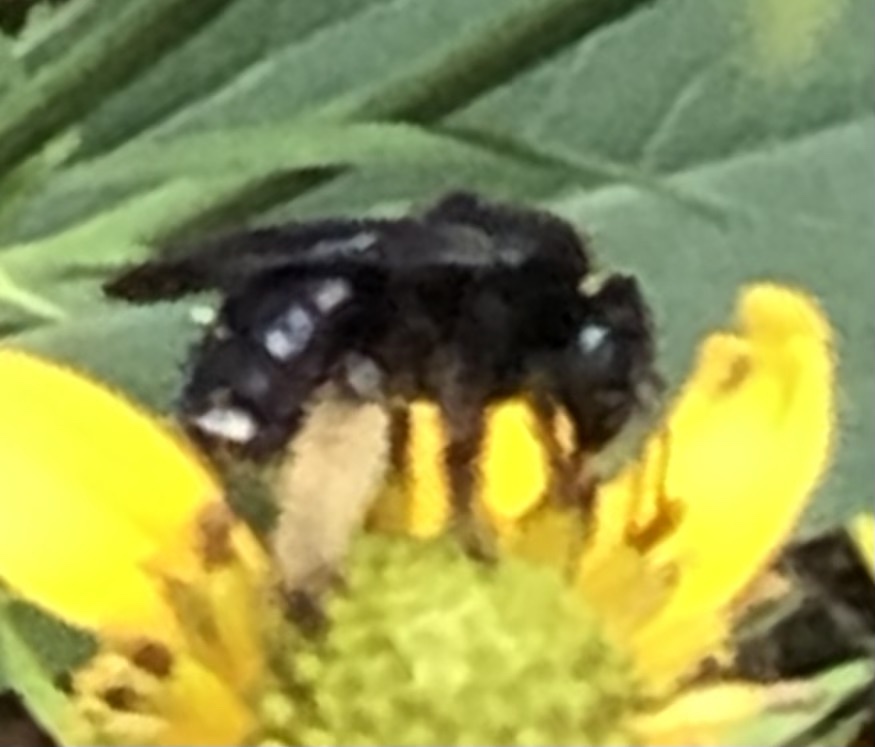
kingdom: Animalia
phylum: Arthropoda
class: Insecta
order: Hymenoptera
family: Apidae
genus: Melissodes
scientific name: Melissodes bimaculatus
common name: Two-spotted long-horned bee
